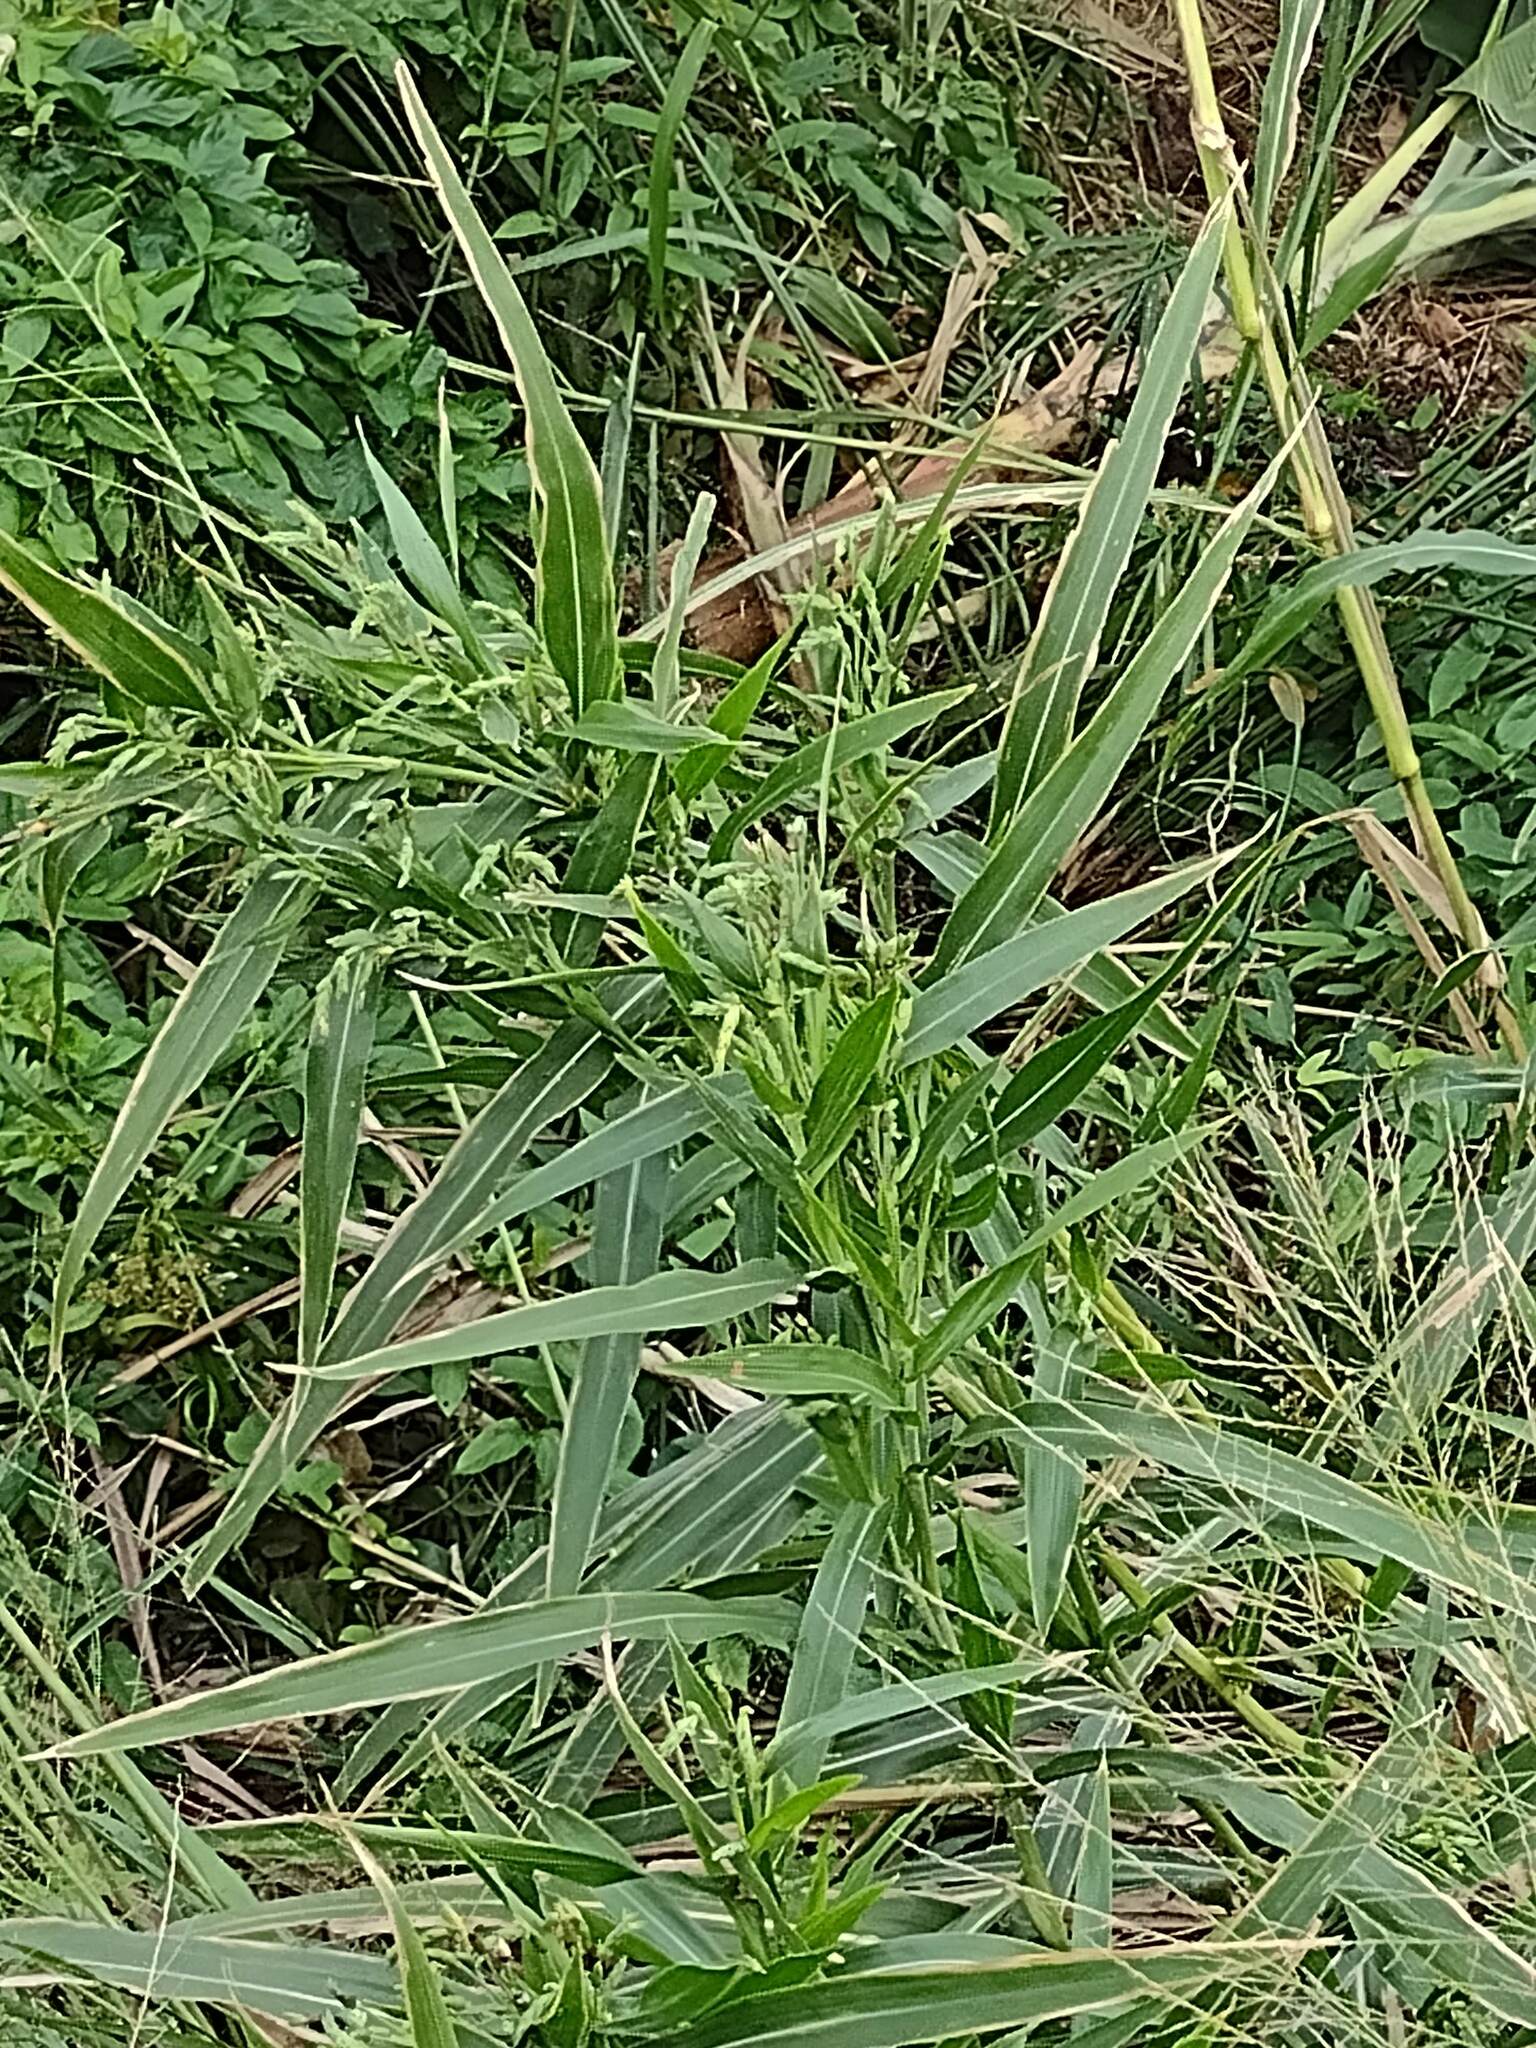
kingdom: Plantae
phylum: Tracheophyta
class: Liliopsida
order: Poales
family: Poaceae
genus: Coix
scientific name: Coix lacryma-jobi
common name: Job's tears
